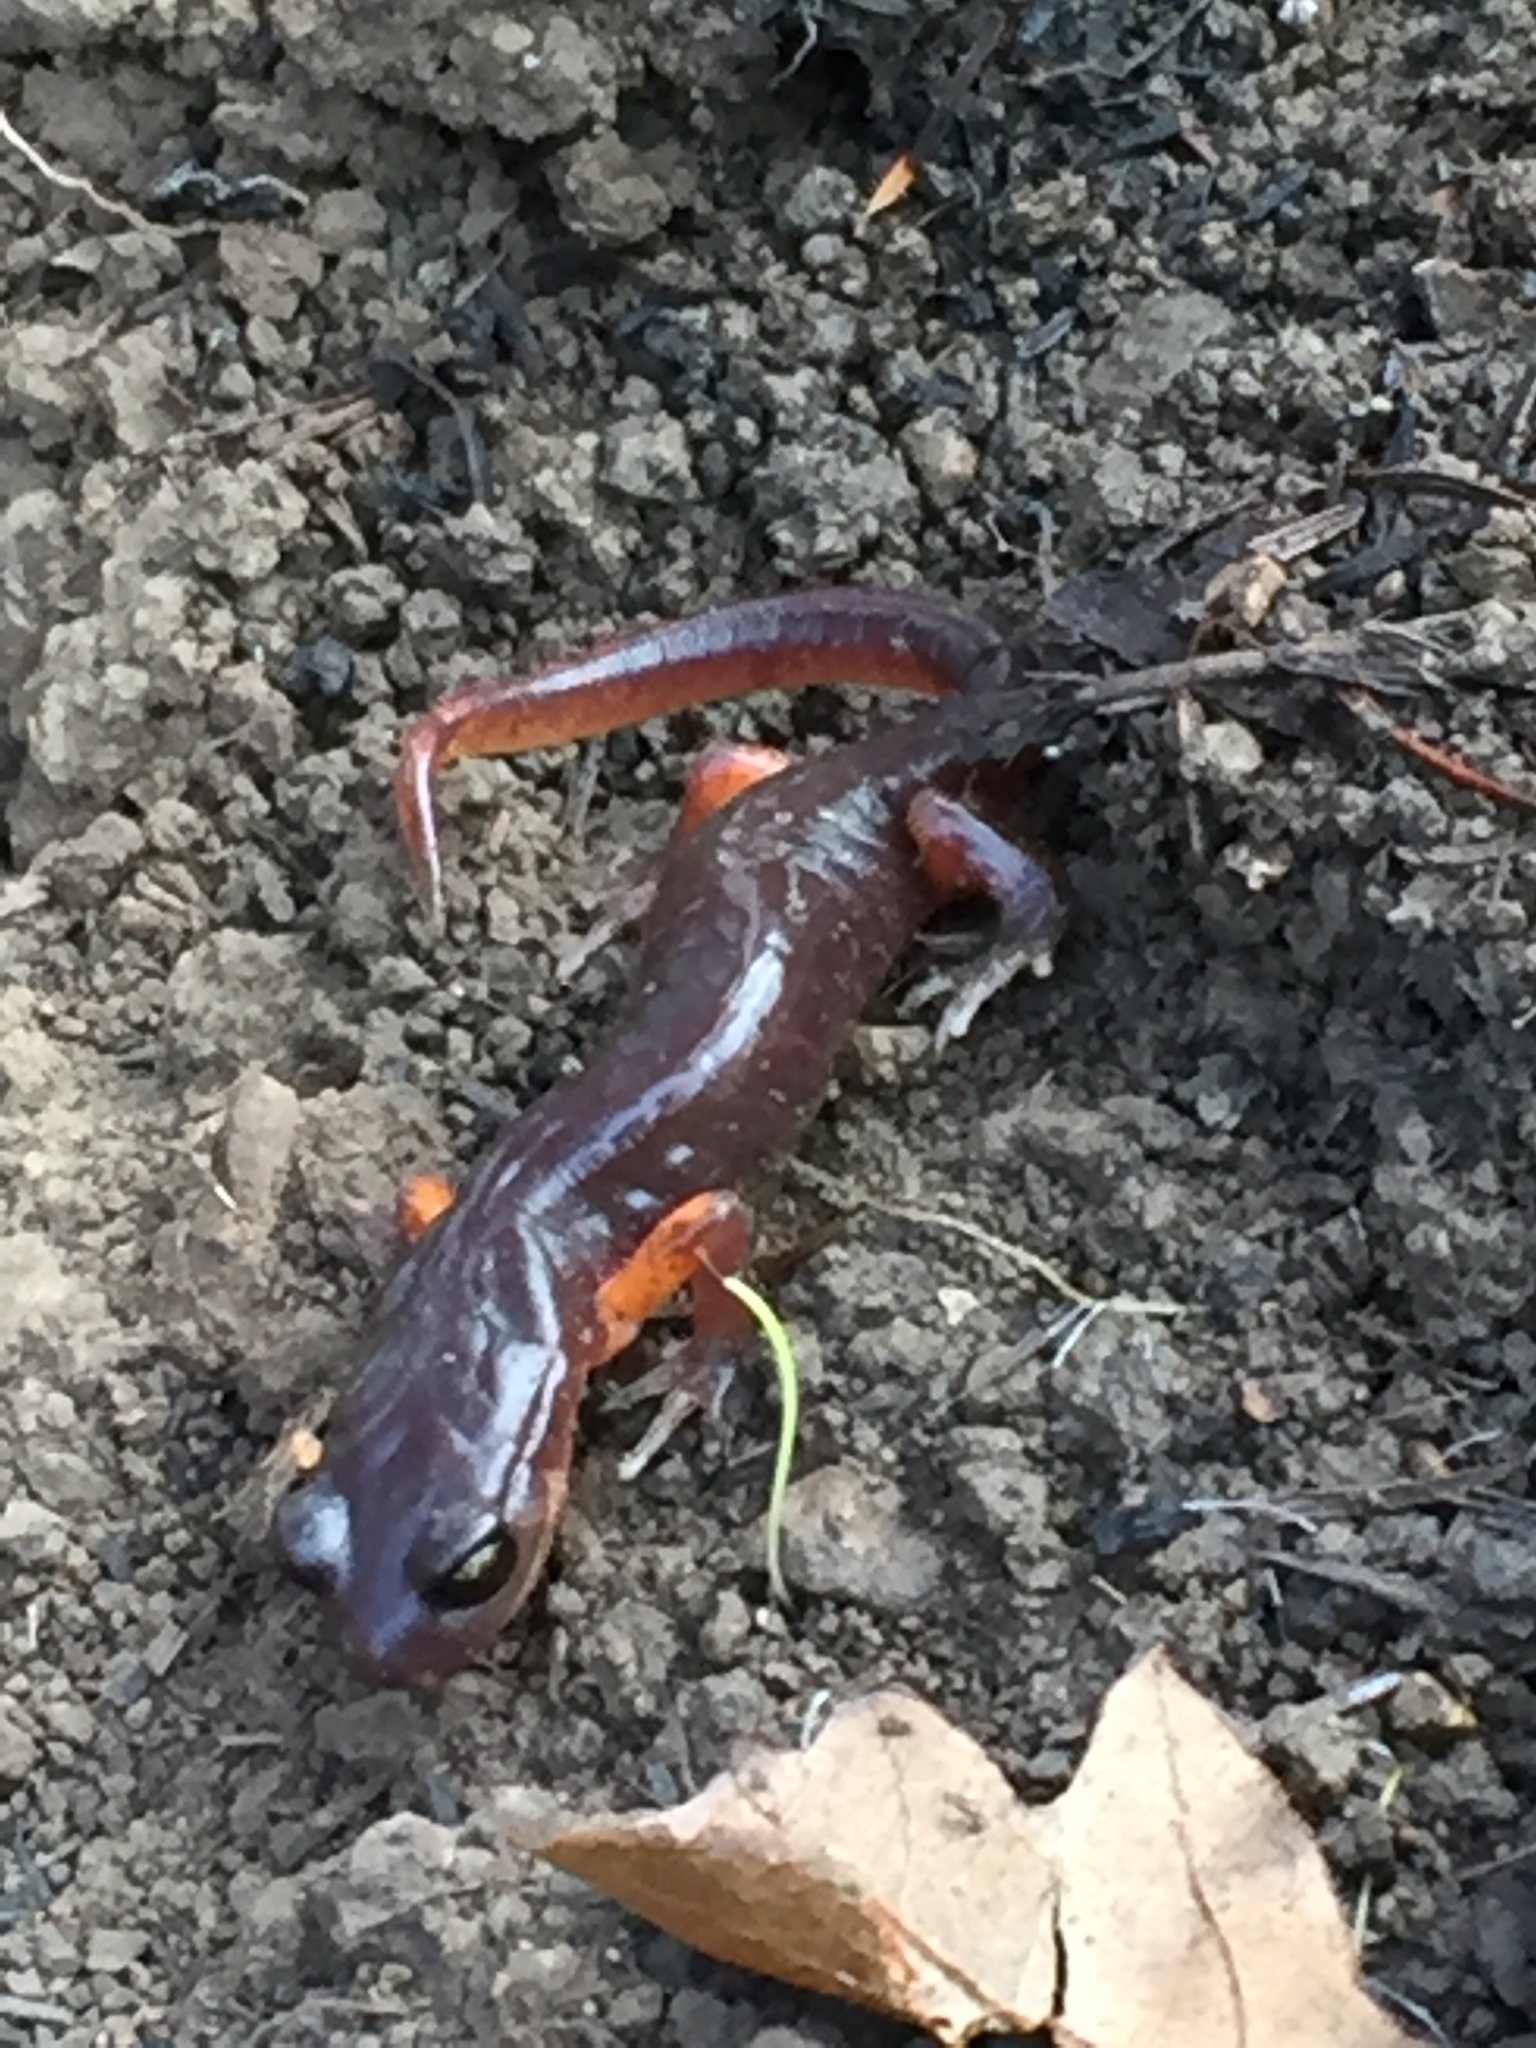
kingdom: Animalia
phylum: Chordata
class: Amphibia
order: Caudata
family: Plethodontidae
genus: Ensatina
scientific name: Ensatina eschscholtzii
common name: Ensatina
